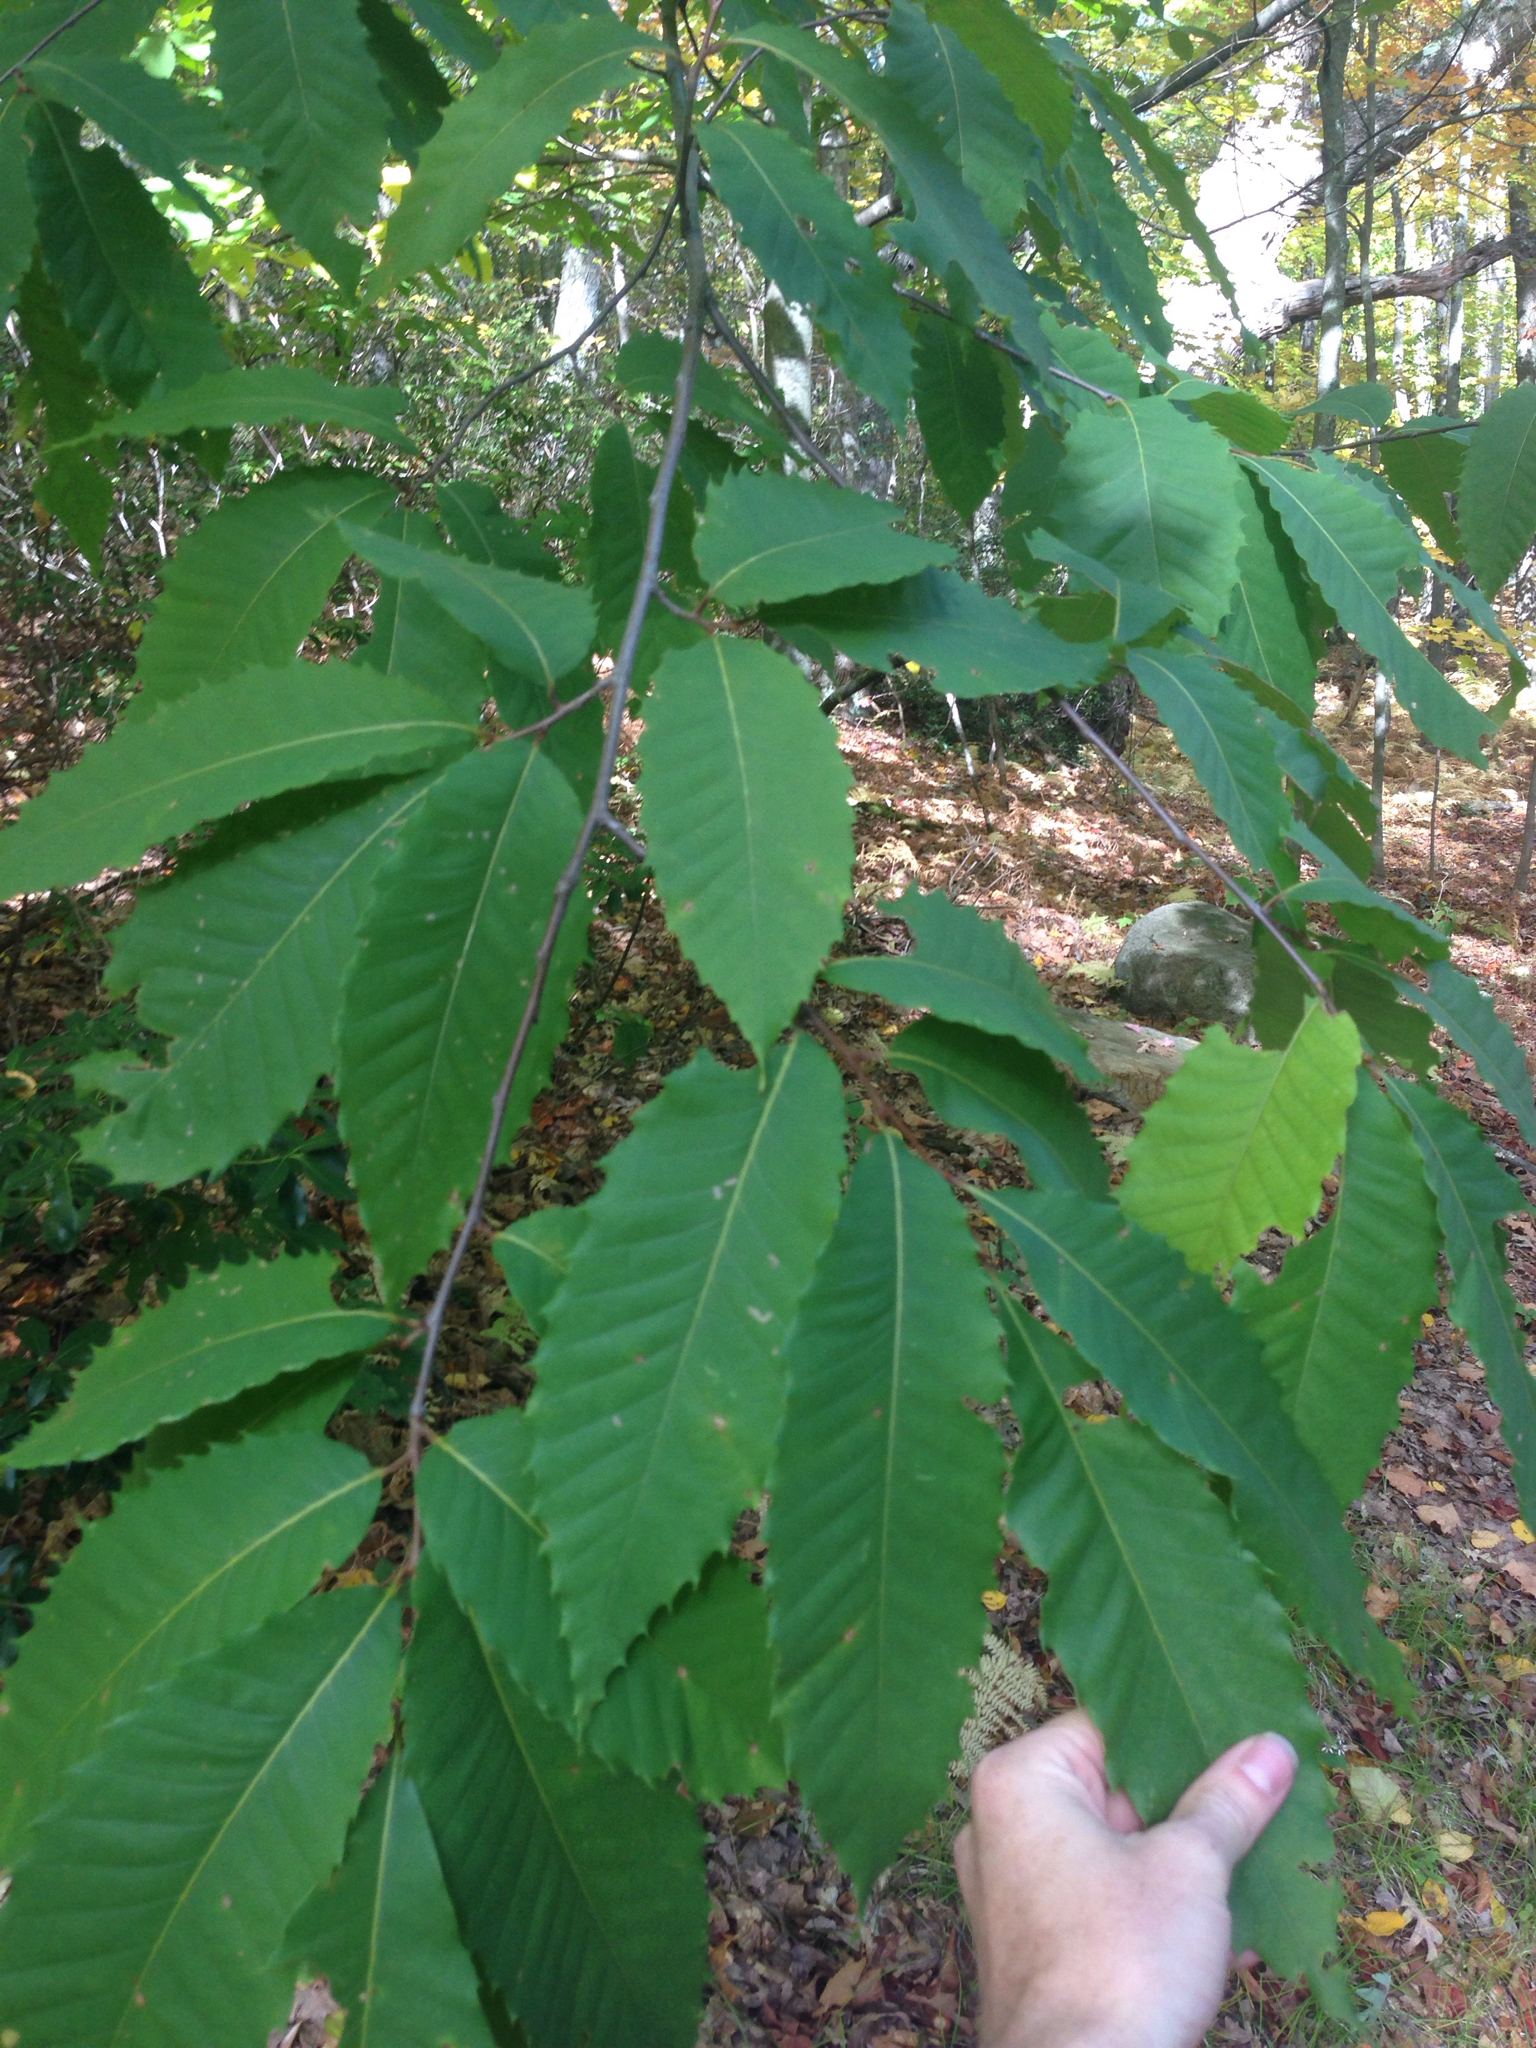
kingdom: Plantae
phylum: Tracheophyta
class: Magnoliopsida
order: Fagales
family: Fagaceae
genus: Castanea
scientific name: Castanea dentata
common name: American chestnut
